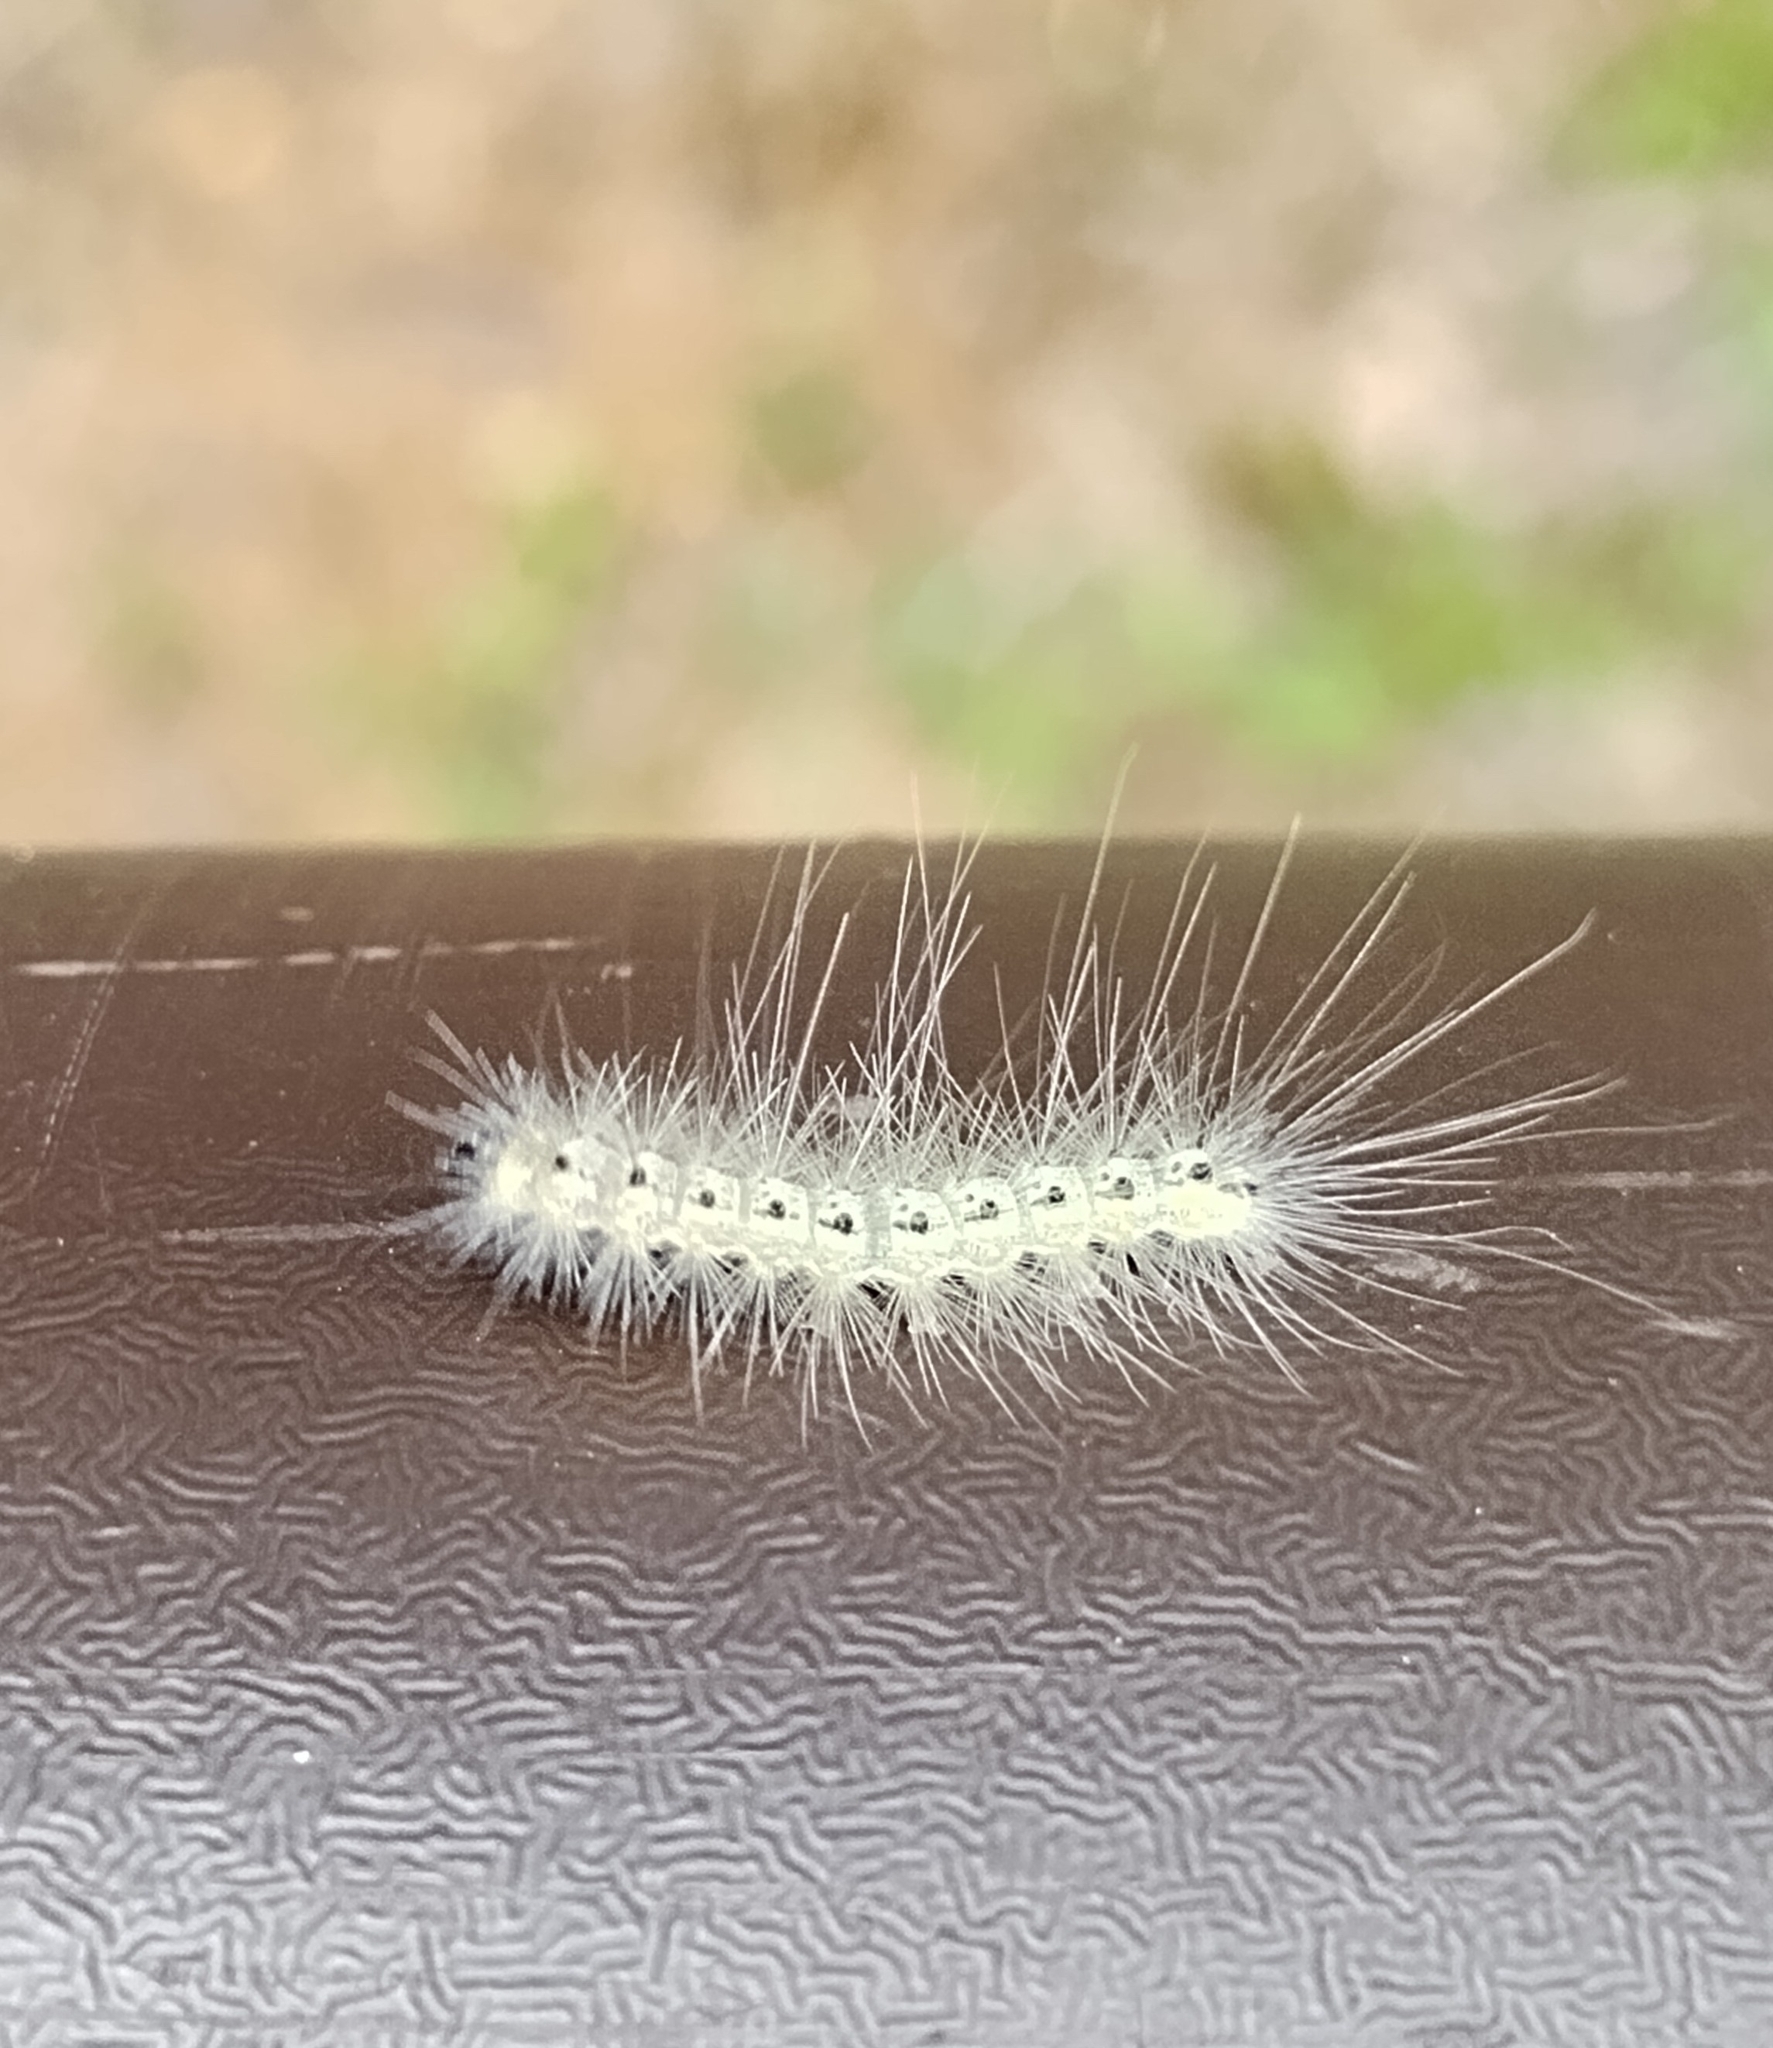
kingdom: Animalia
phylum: Arthropoda
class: Insecta
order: Lepidoptera
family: Erebidae
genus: Hyphantria
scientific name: Hyphantria cunea
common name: American white moth
